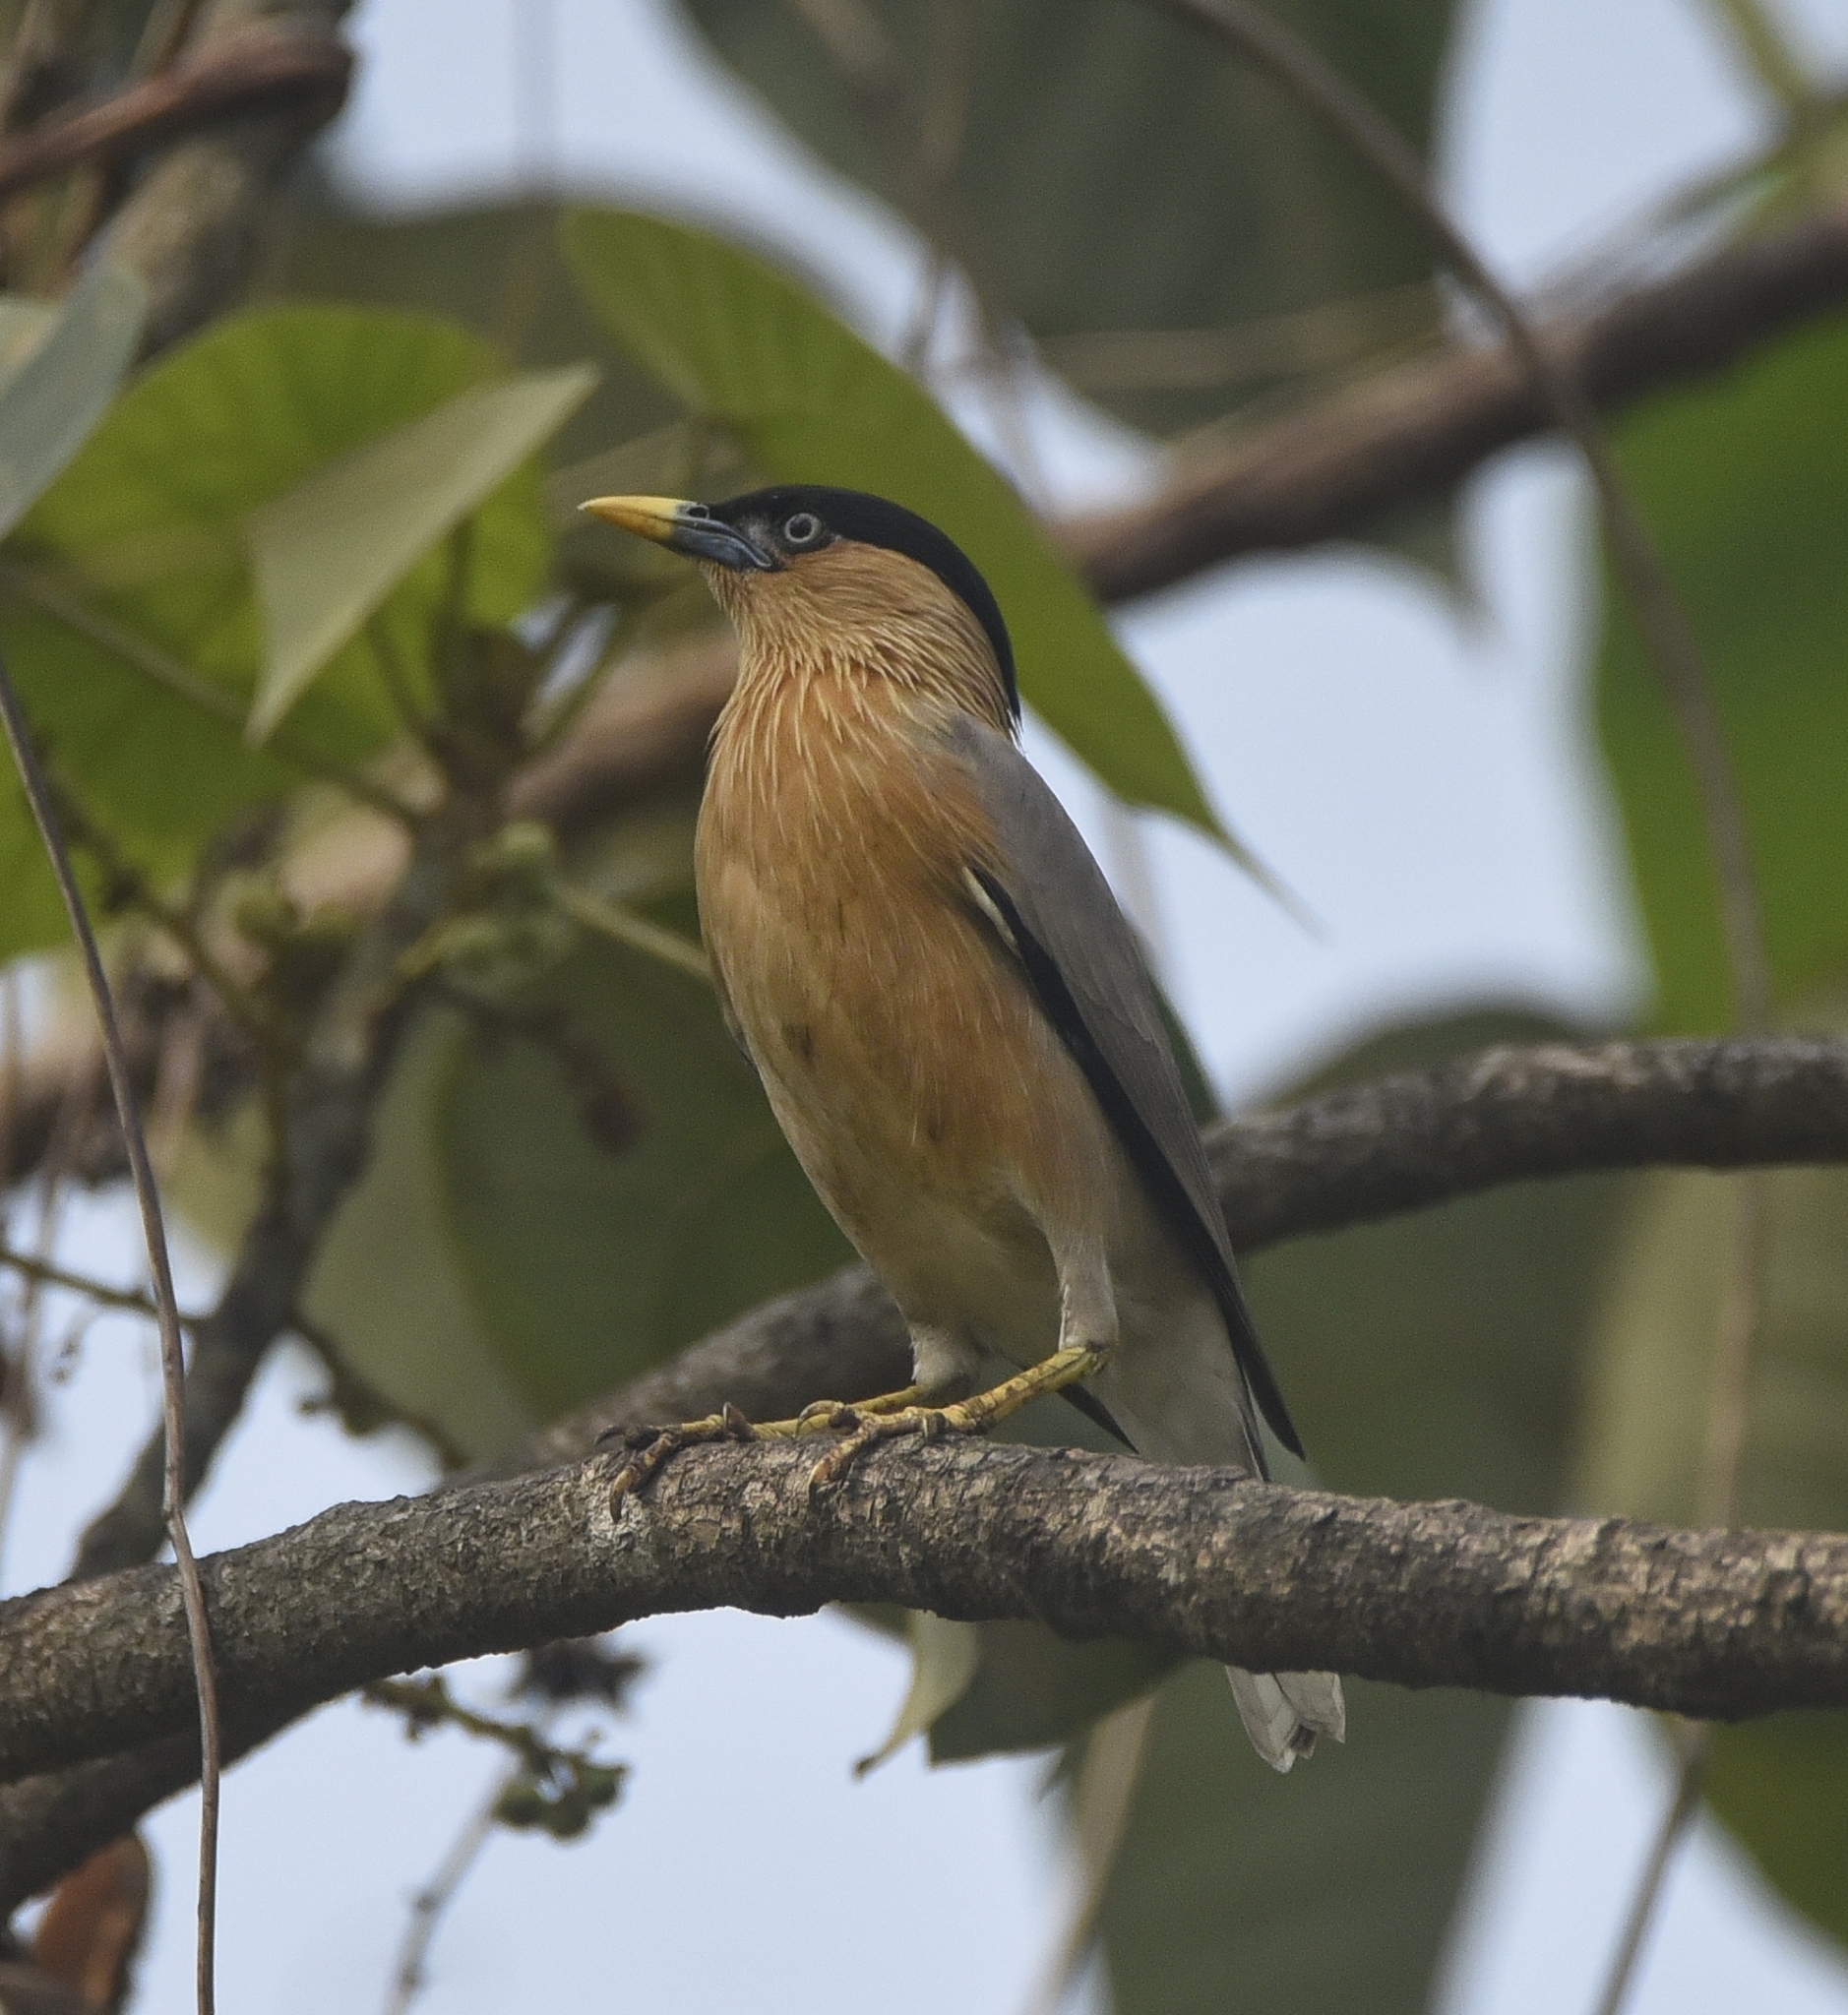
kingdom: Animalia
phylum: Chordata
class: Aves
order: Passeriformes
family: Sturnidae
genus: Sturnia
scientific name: Sturnia pagodarum
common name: Brahminy starling
